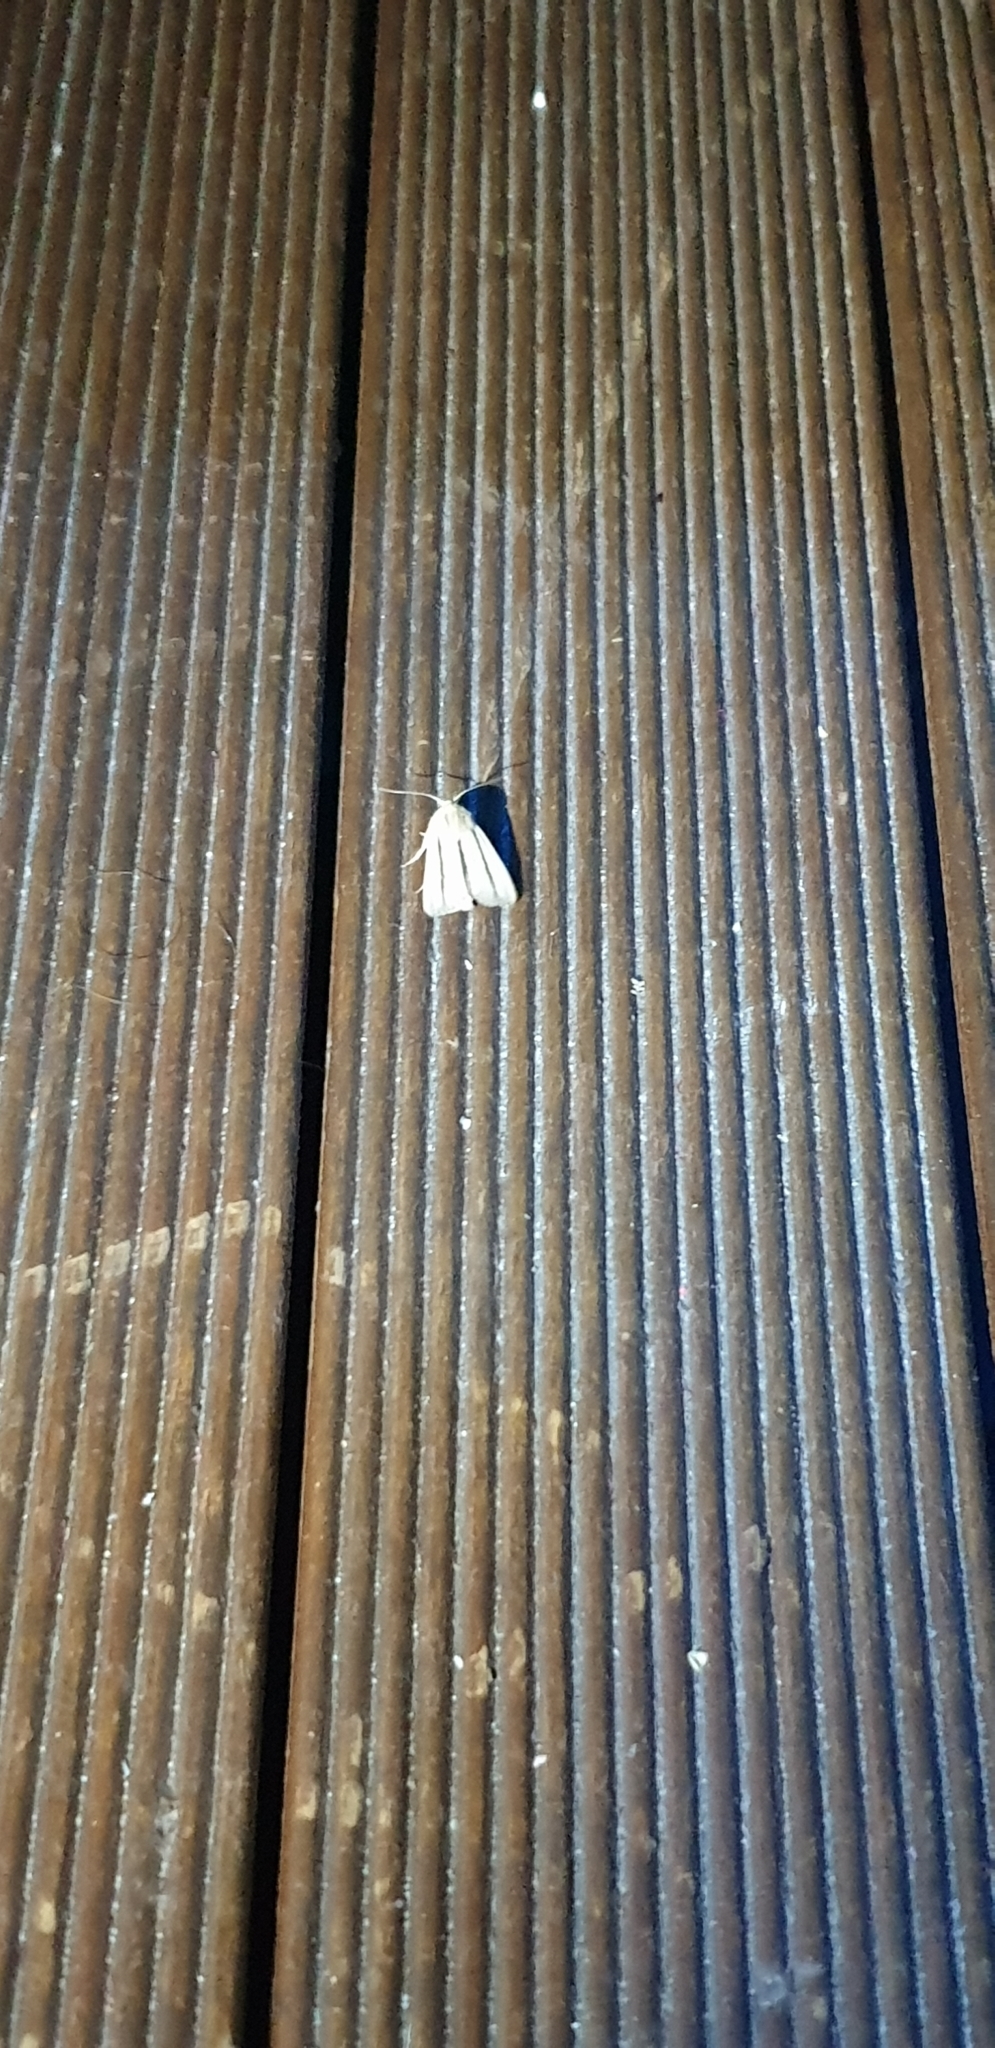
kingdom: Animalia
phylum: Arthropoda
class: Insecta
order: Lepidoptera
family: Noctuidae
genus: Leucania
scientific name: Leucania diatrecta
